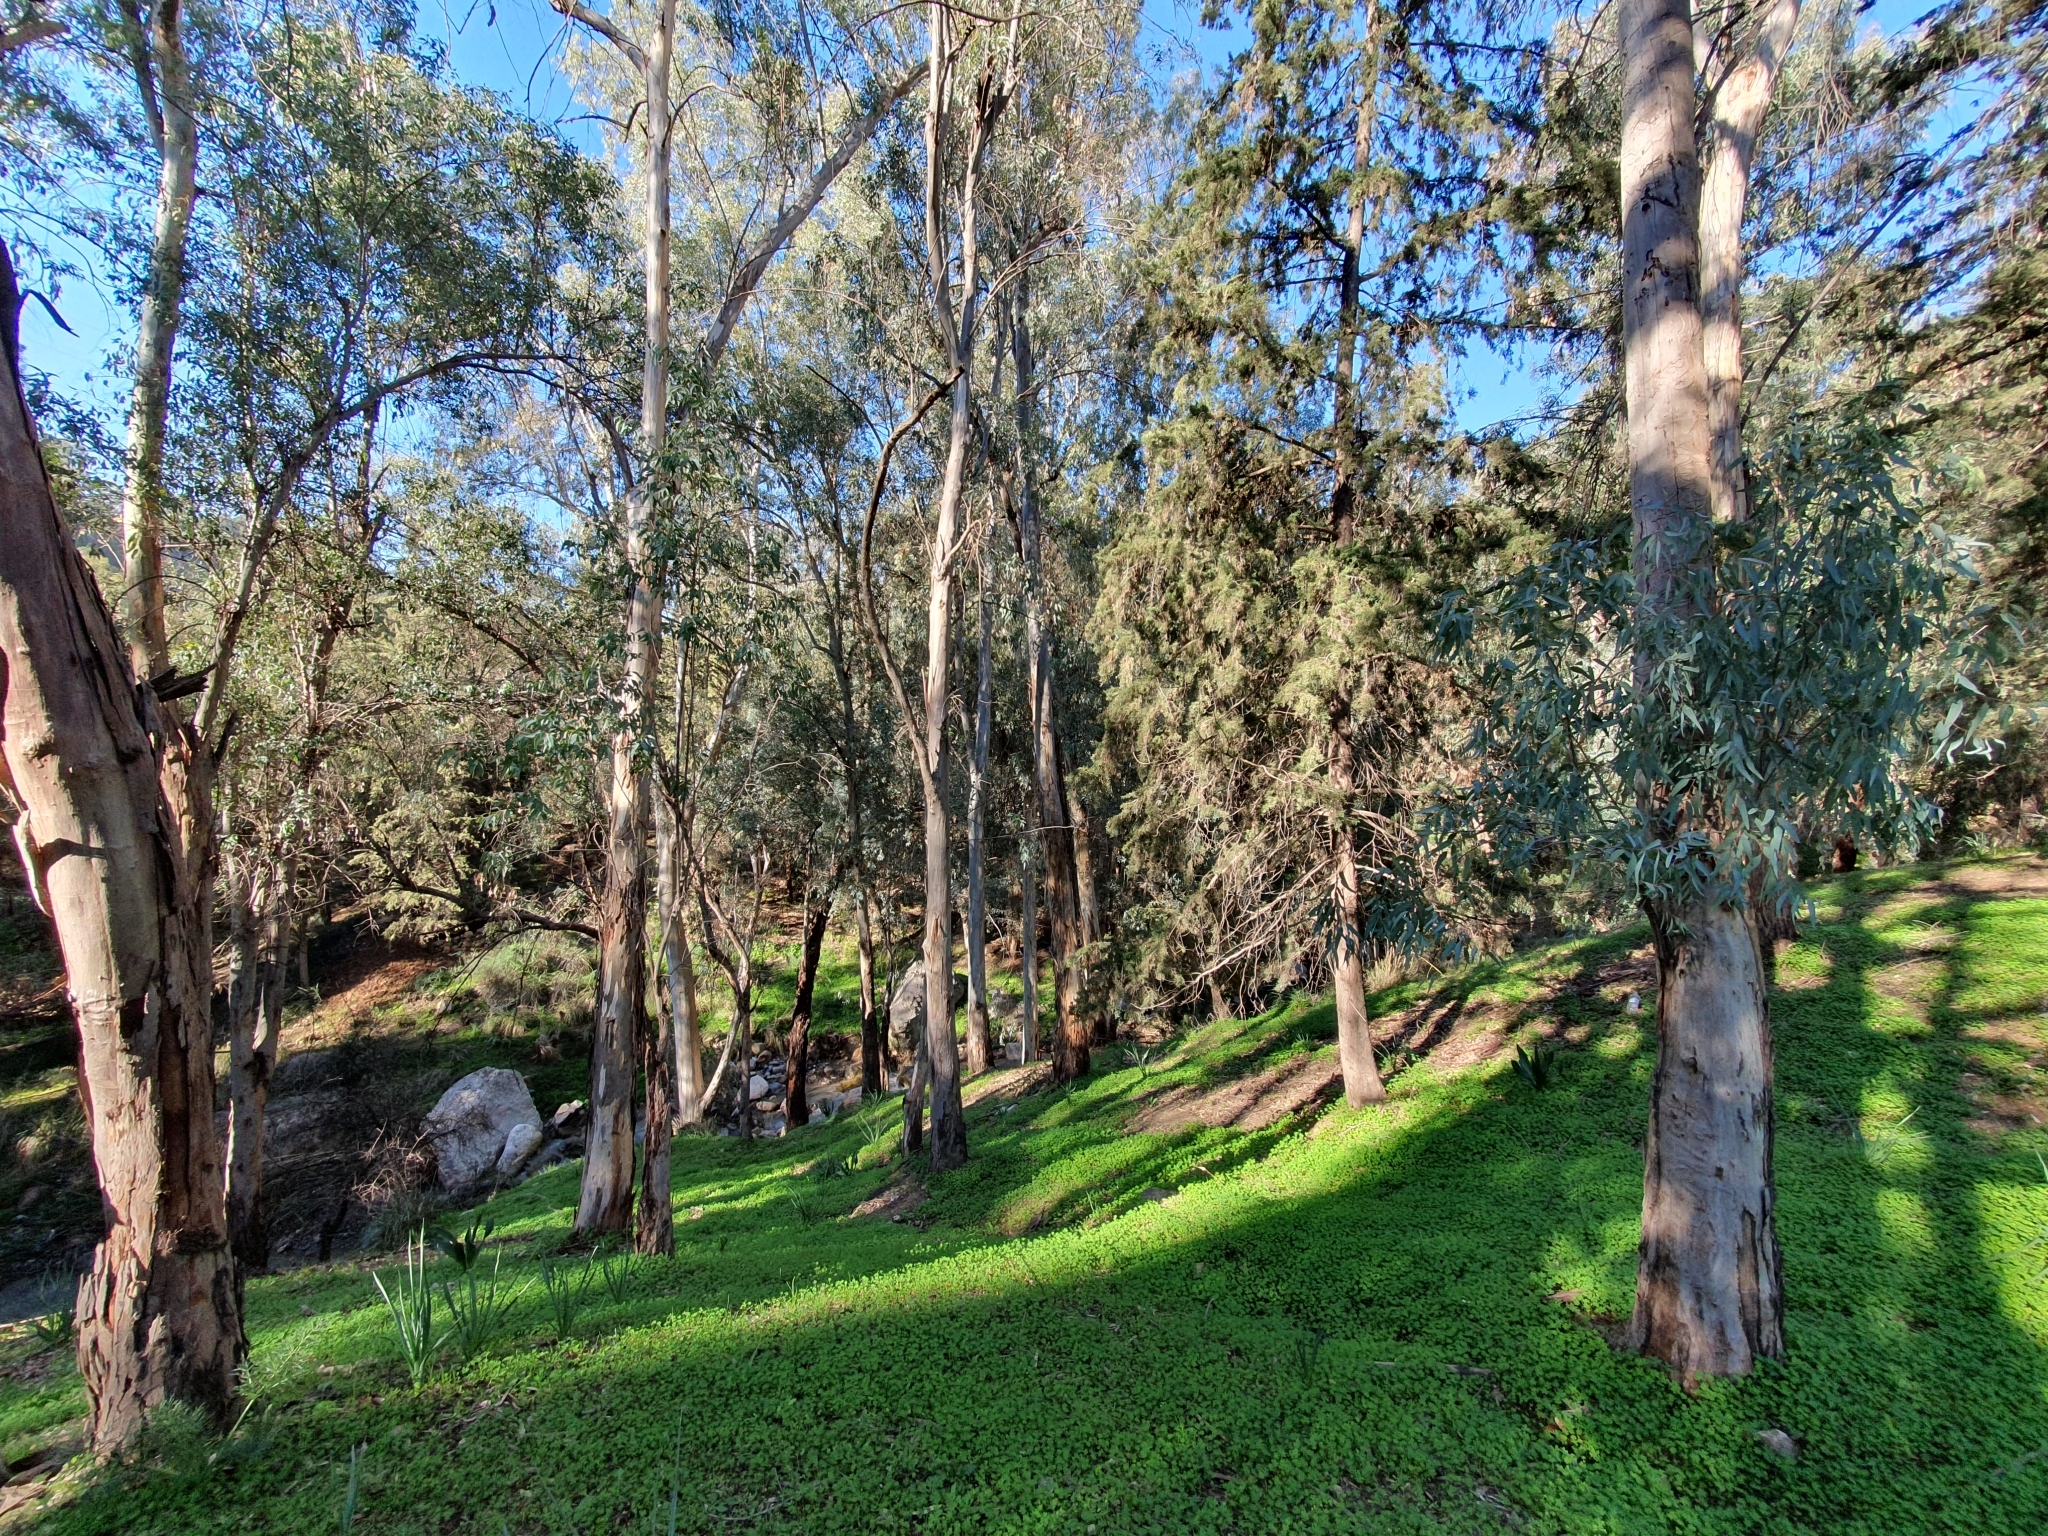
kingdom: Plantae
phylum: Tracheophyta
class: Magnoliopsida
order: Myrtales
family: Myrtaceae
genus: Eucalyptus
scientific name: Eucalyptus camaldulensis
